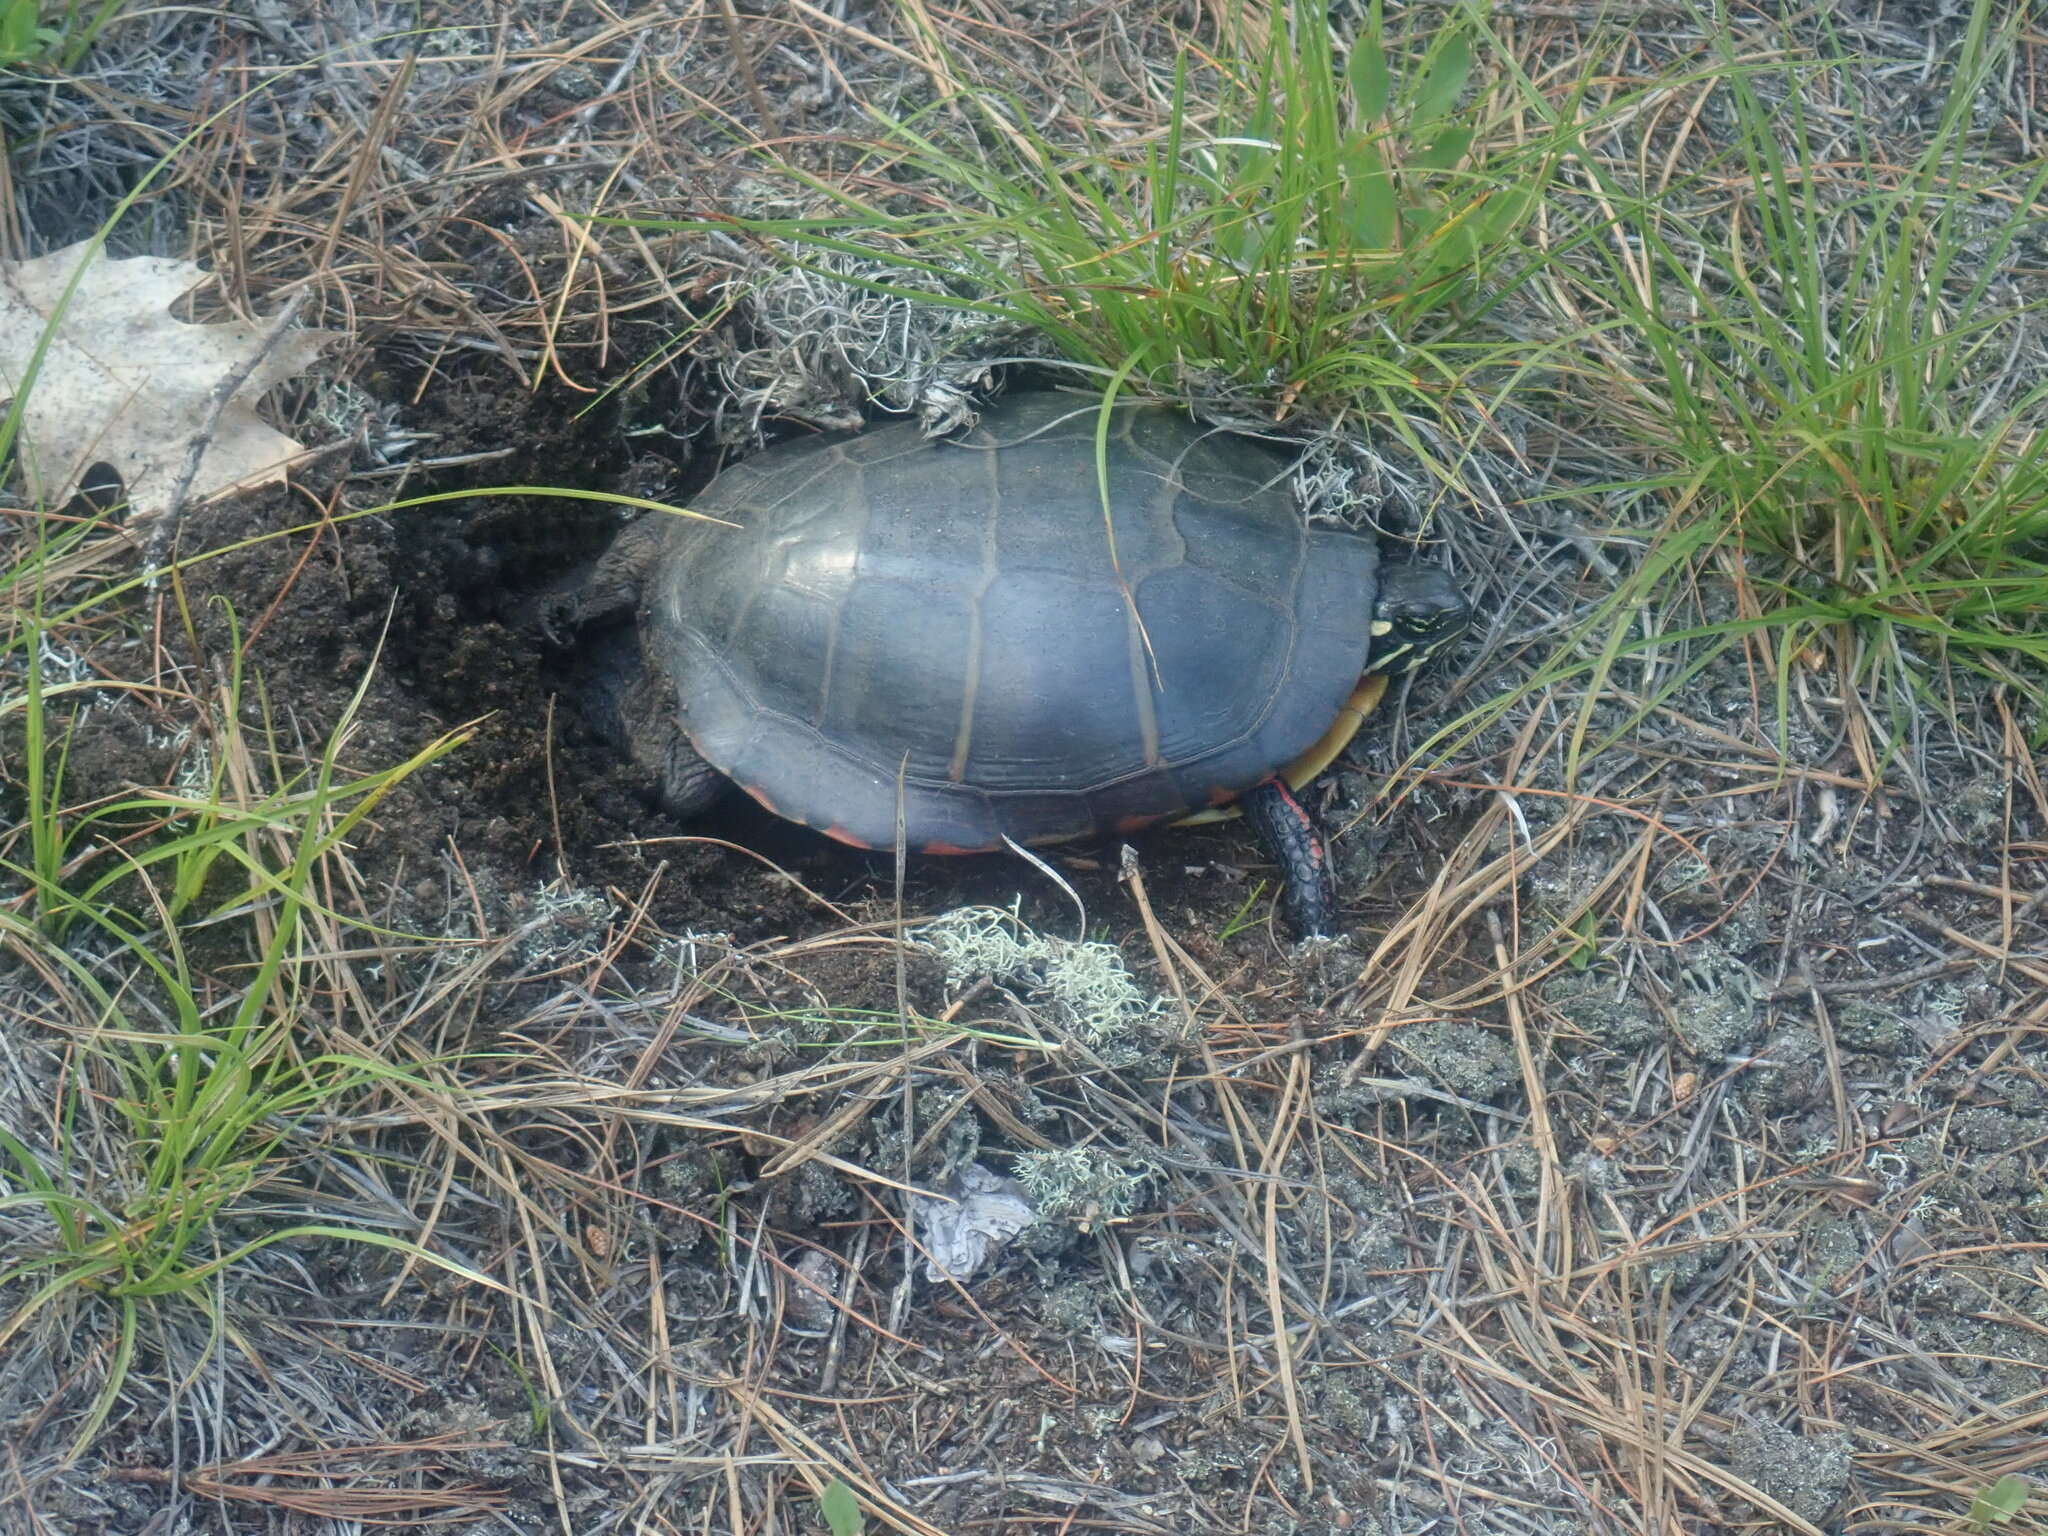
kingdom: Animalia
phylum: Chordata
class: Testudines
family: Emydidae
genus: Chrysemys
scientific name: Chrysemys picta
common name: Painted turtle
